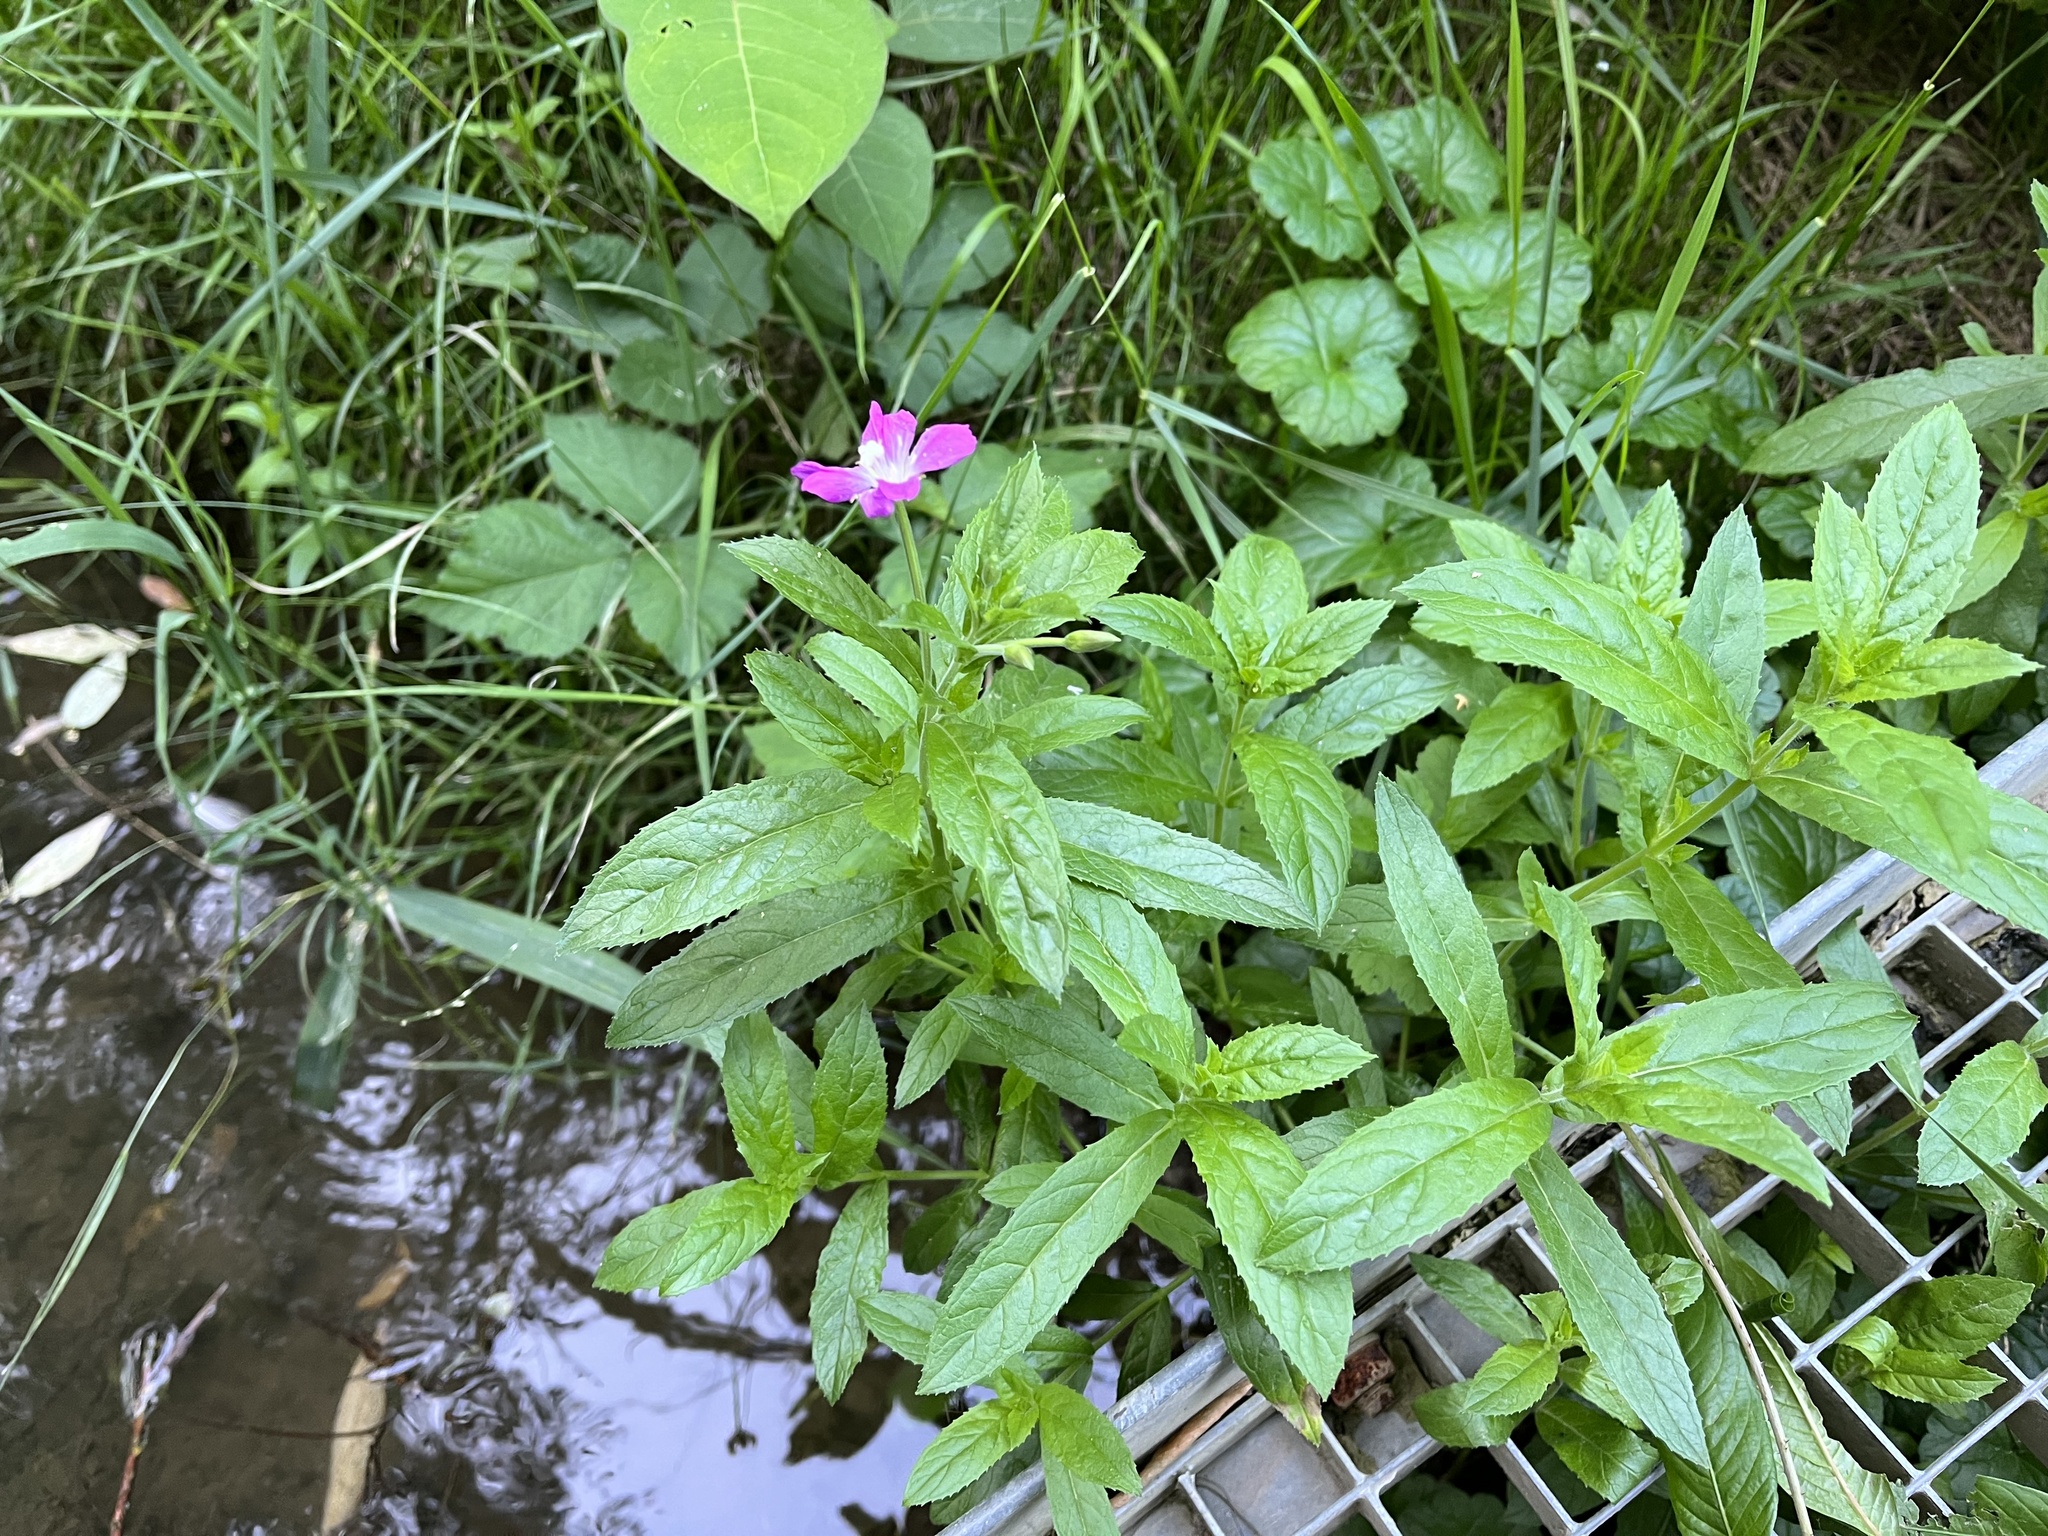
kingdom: Plantae
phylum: Tracheophyta
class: Magnoliopsida
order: Myrtales
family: Onagraceae
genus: Epilobium
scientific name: Epilobium hirsutum
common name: Great willowherb
